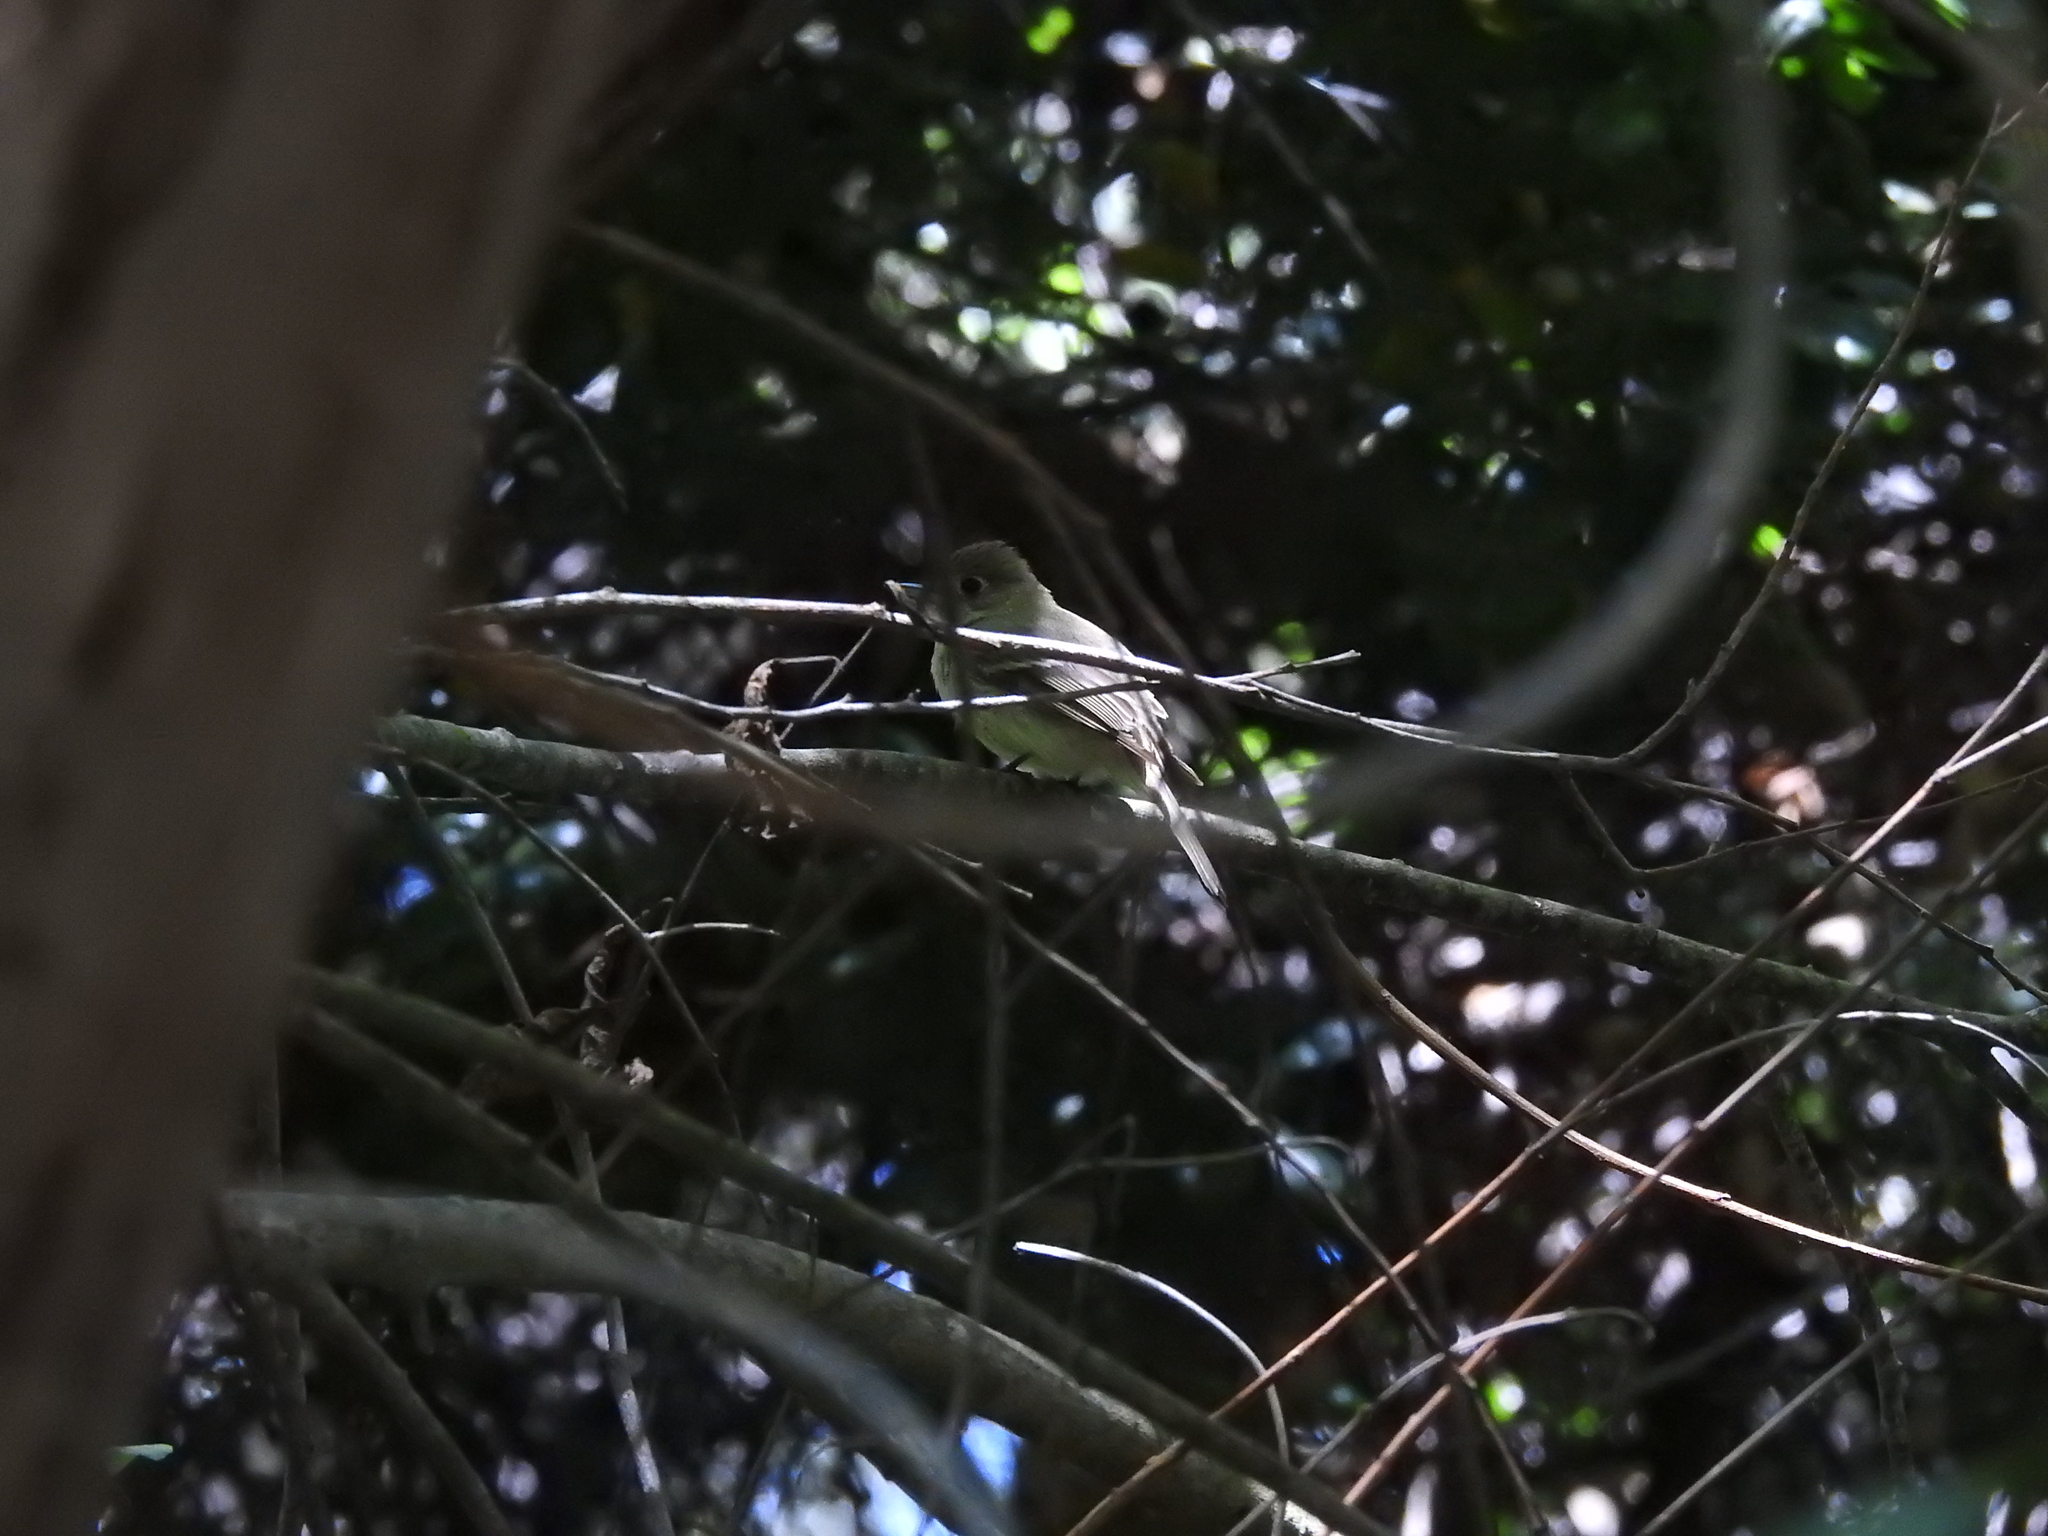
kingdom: Animalia
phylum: Chordata
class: Aves
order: Passeriformes
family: Tyrannidae
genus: Empidonax
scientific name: Empidonax difficilis
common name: Pacific-slope flycatcher
